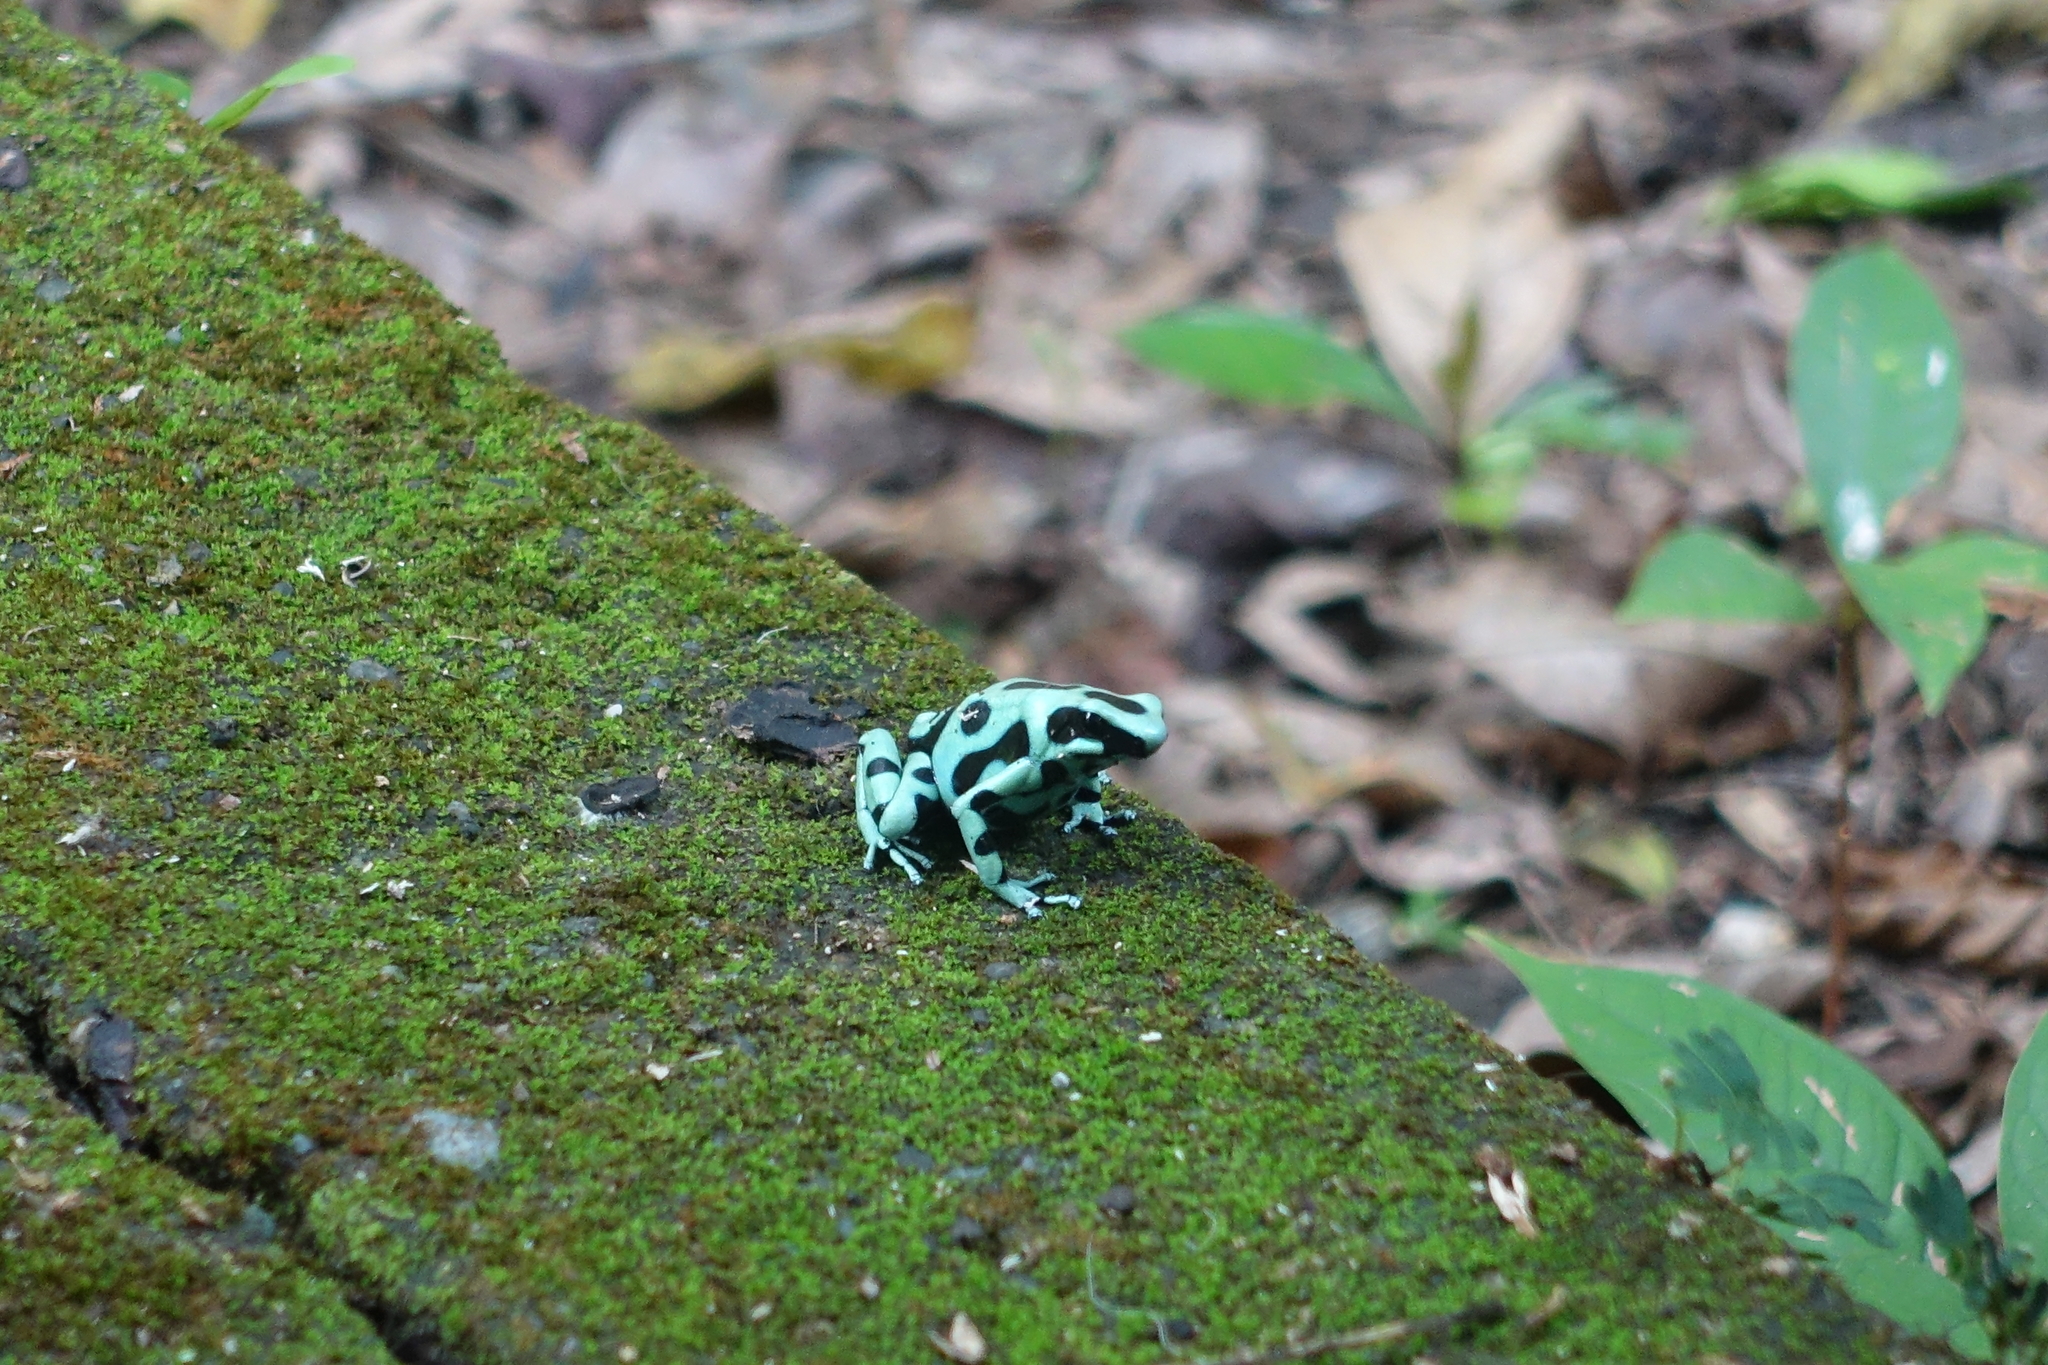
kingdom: Animalia
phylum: Chordata
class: Amphibia
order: Anura
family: Dendrobatidae
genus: Dendrobates
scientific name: Dendrobates auratus
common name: Green and black poison dart frog
